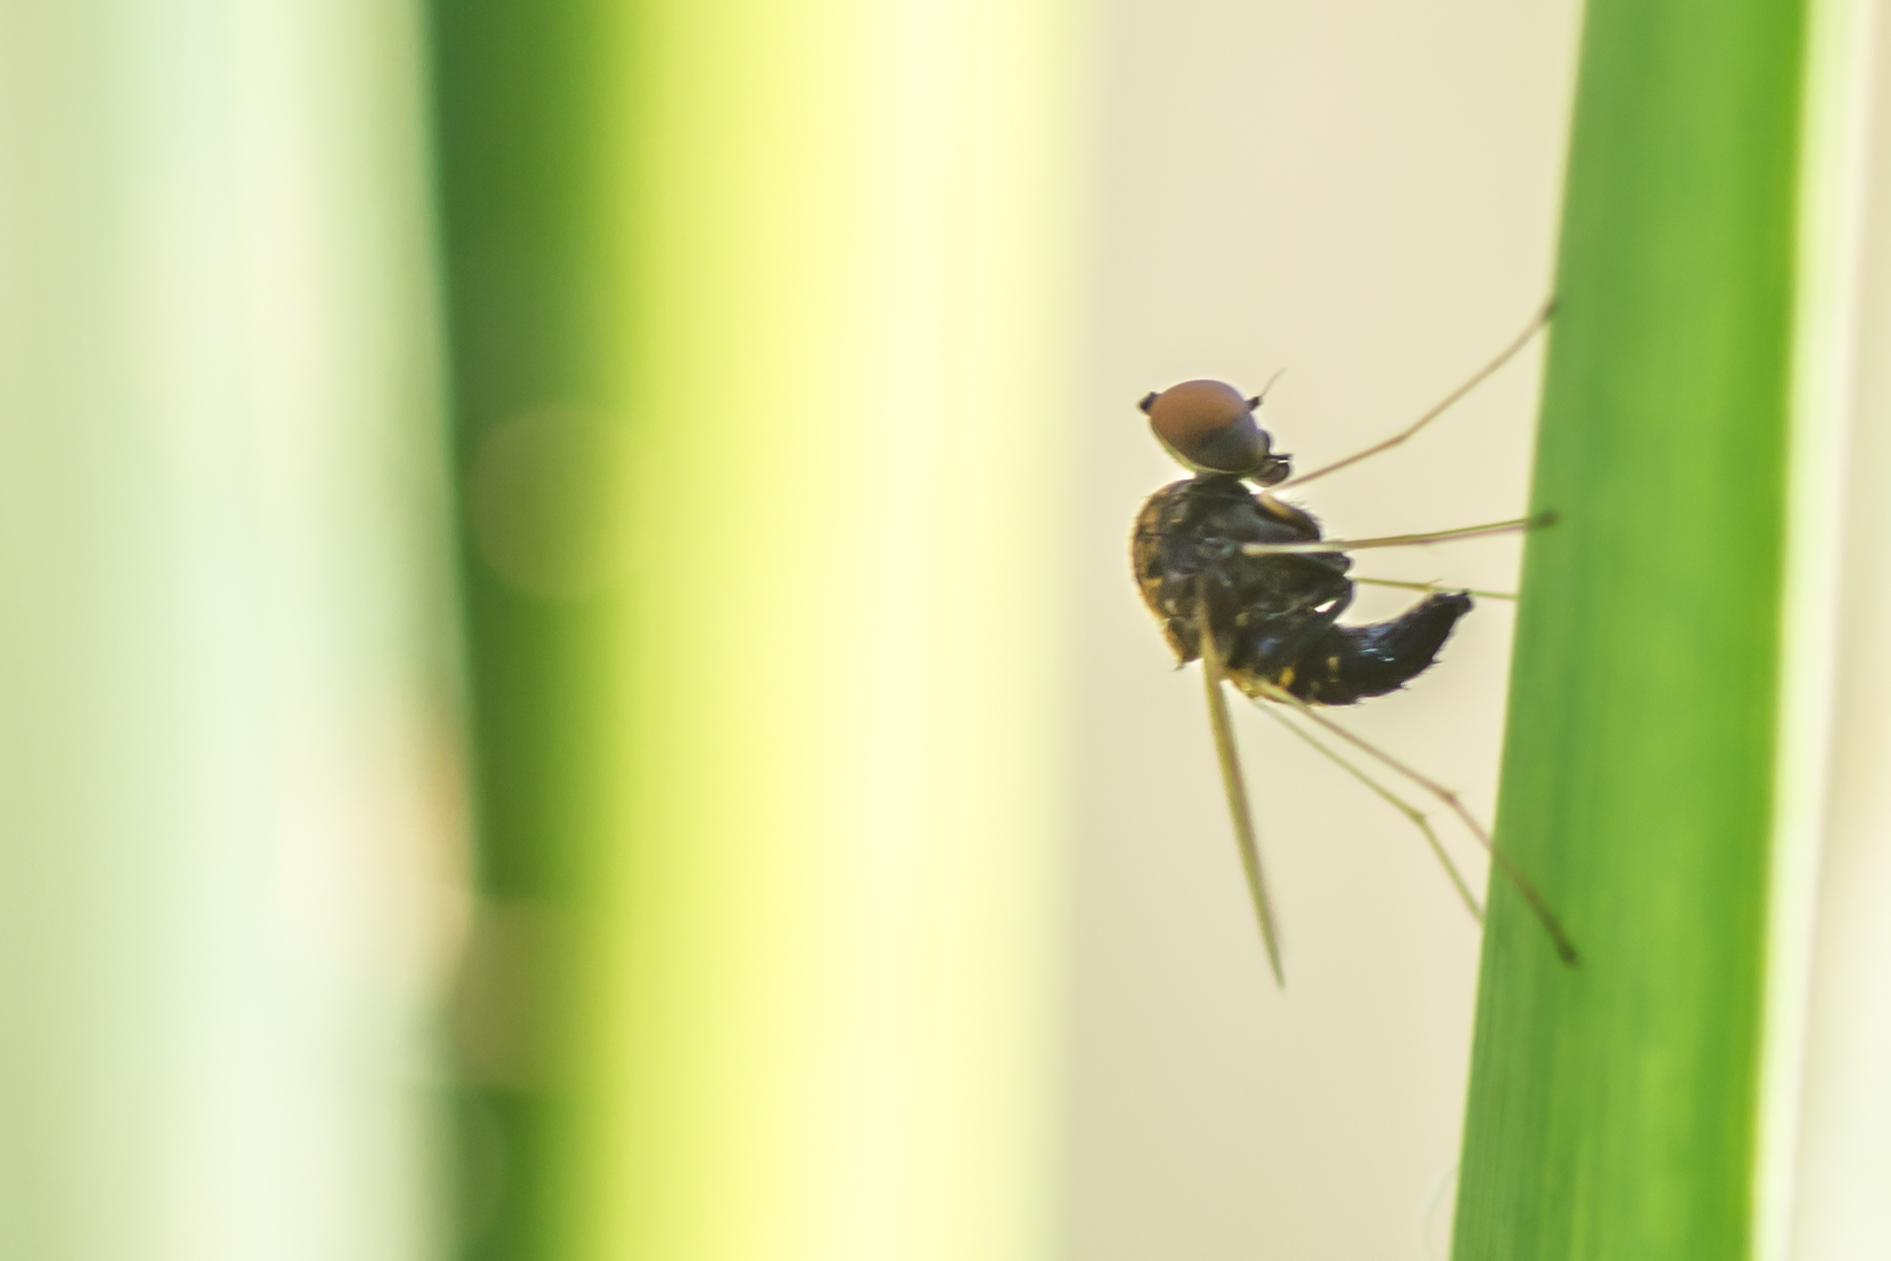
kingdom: Animalia
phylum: Arthropoda
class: Insecta
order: Diptera
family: Rhagionidae
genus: Chrysopilus
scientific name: Chrysopilus basilaris
